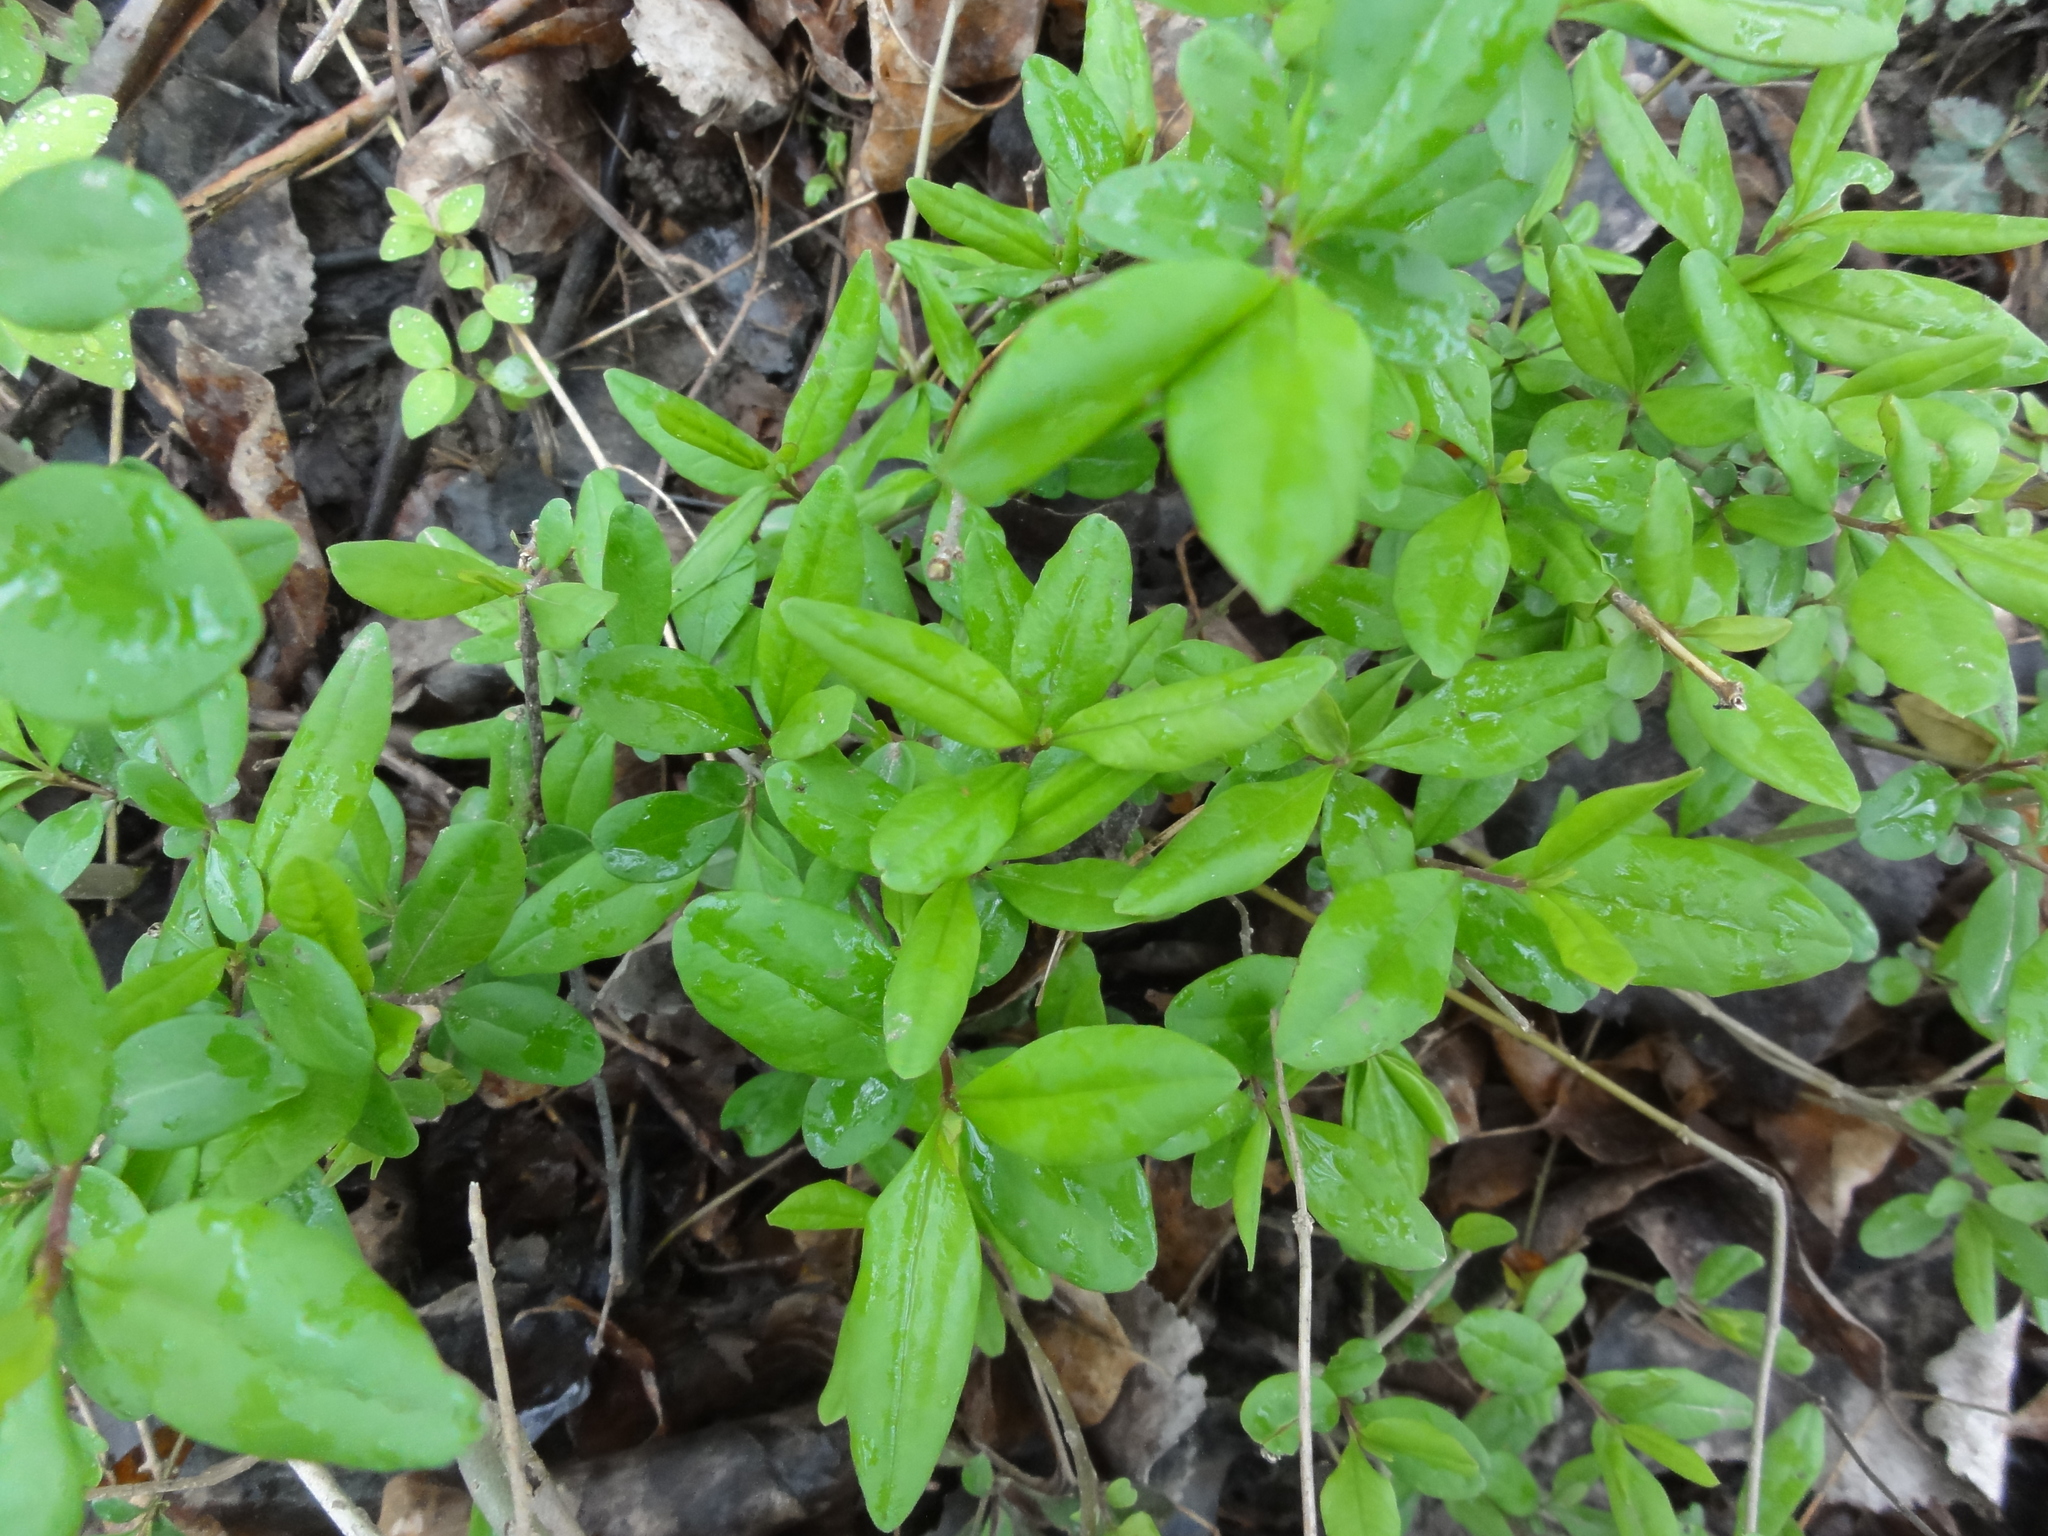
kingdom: Plantae
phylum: Tracheophyta
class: Magnoliopsida
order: Lamiales
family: Oleaceae
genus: Ligustrum
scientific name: Ligustrum obtusifolium
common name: Border privet
